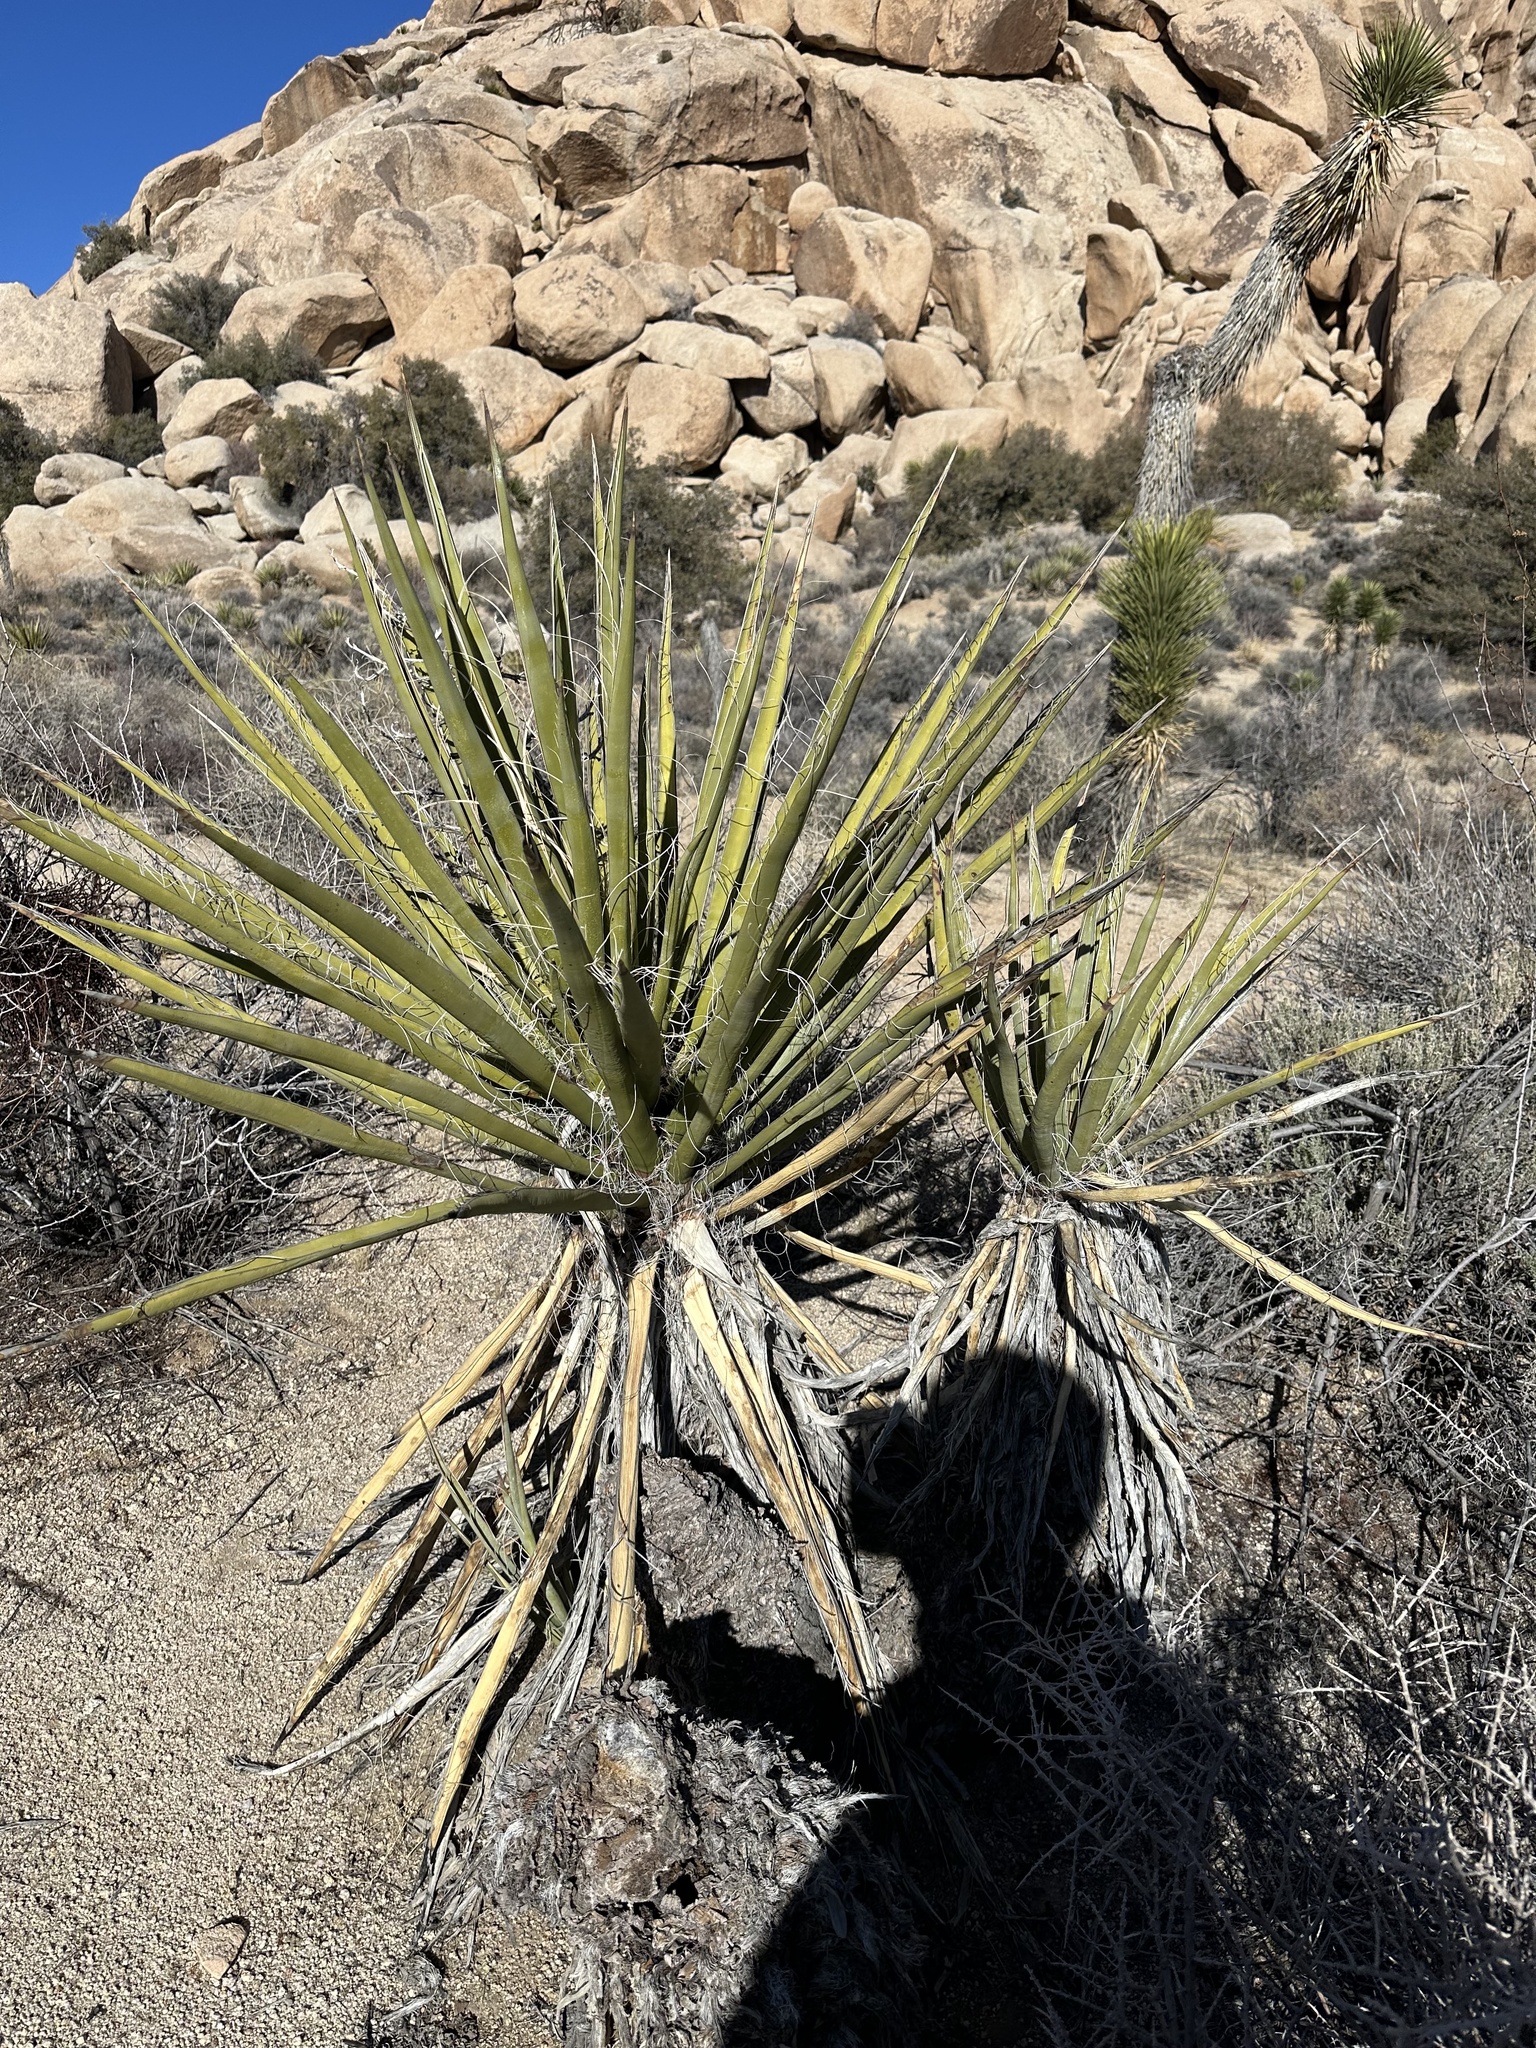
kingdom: Plantae
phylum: Tracheophyta
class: Liliopsida
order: Asparagales
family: Asparagaceae
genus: Yucca
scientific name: Yucca schidigera
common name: Mojave yucca
